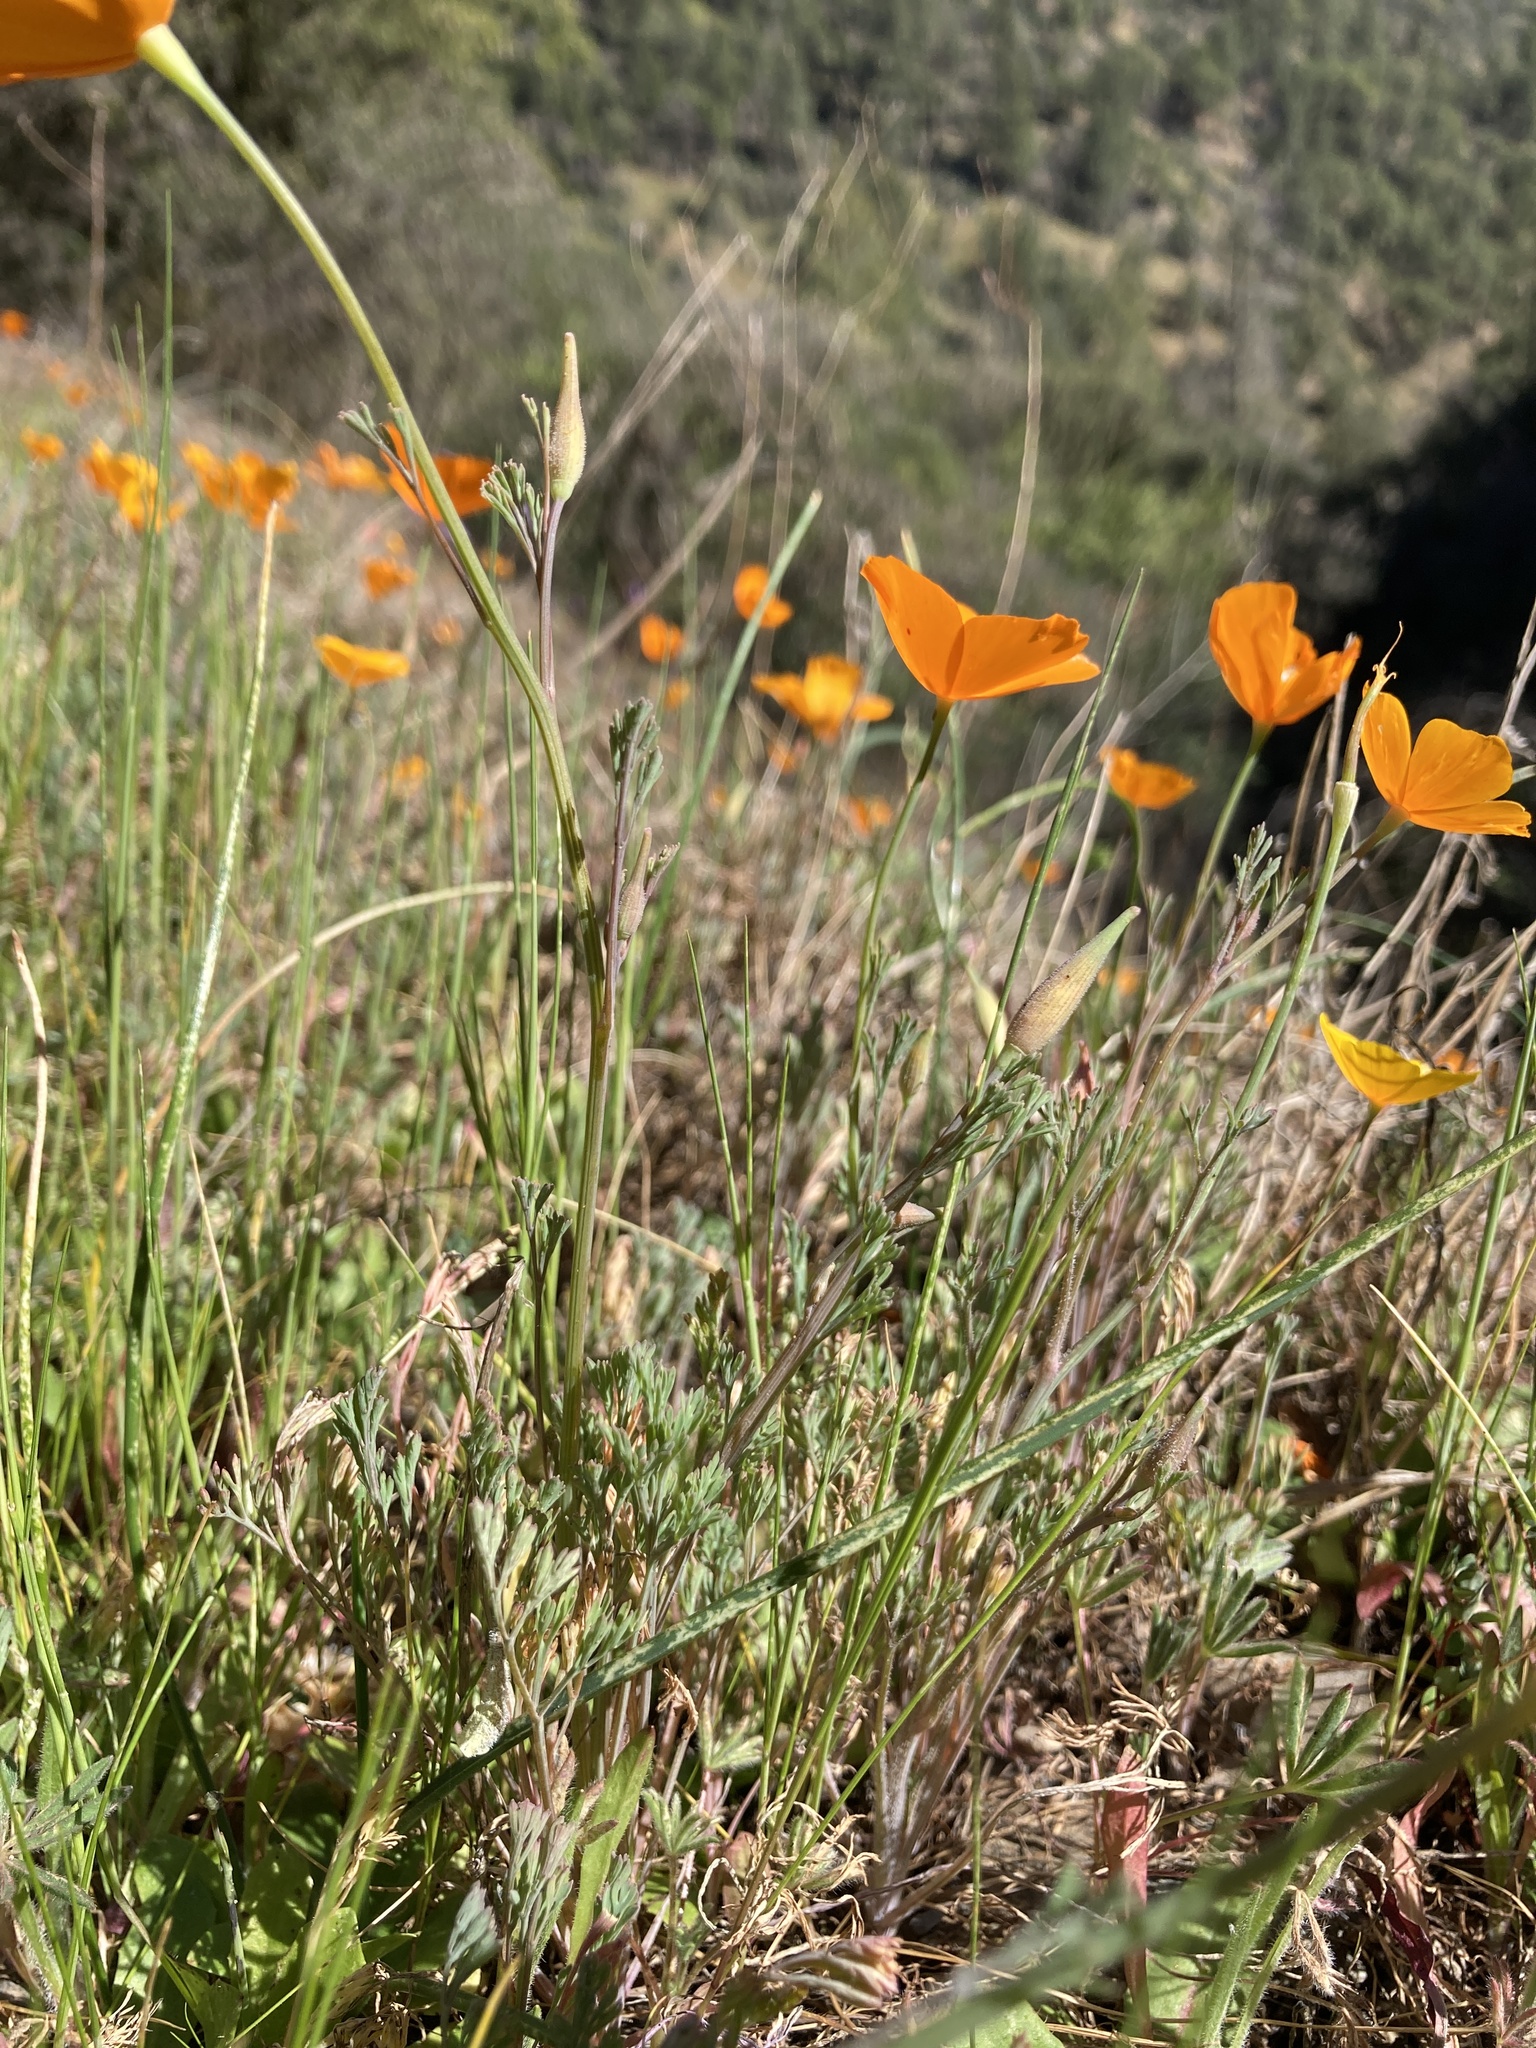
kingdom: Plantae
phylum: Tracheophyta
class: Magnoliopsida
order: Ranunculales
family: Papaveraceae
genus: Eschscholzia
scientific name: Eschscholzia caespitosa
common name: Tufted california-poppy
